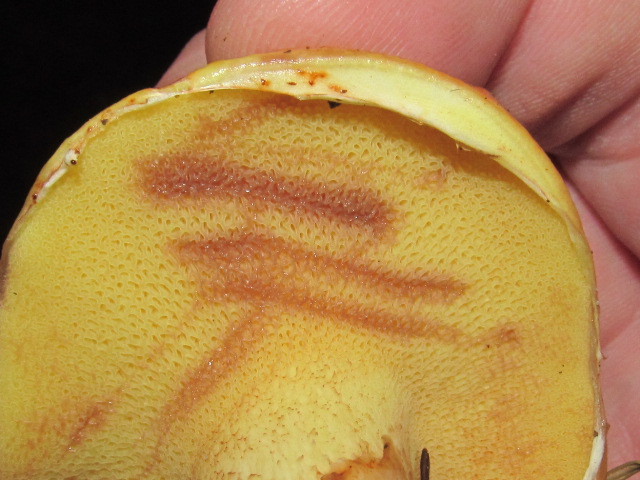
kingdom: Fungi
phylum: Basidiomycota
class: Agaricomycetes
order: Boletales
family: Suillaceae
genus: Suillus
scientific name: Suillus caerulescens
